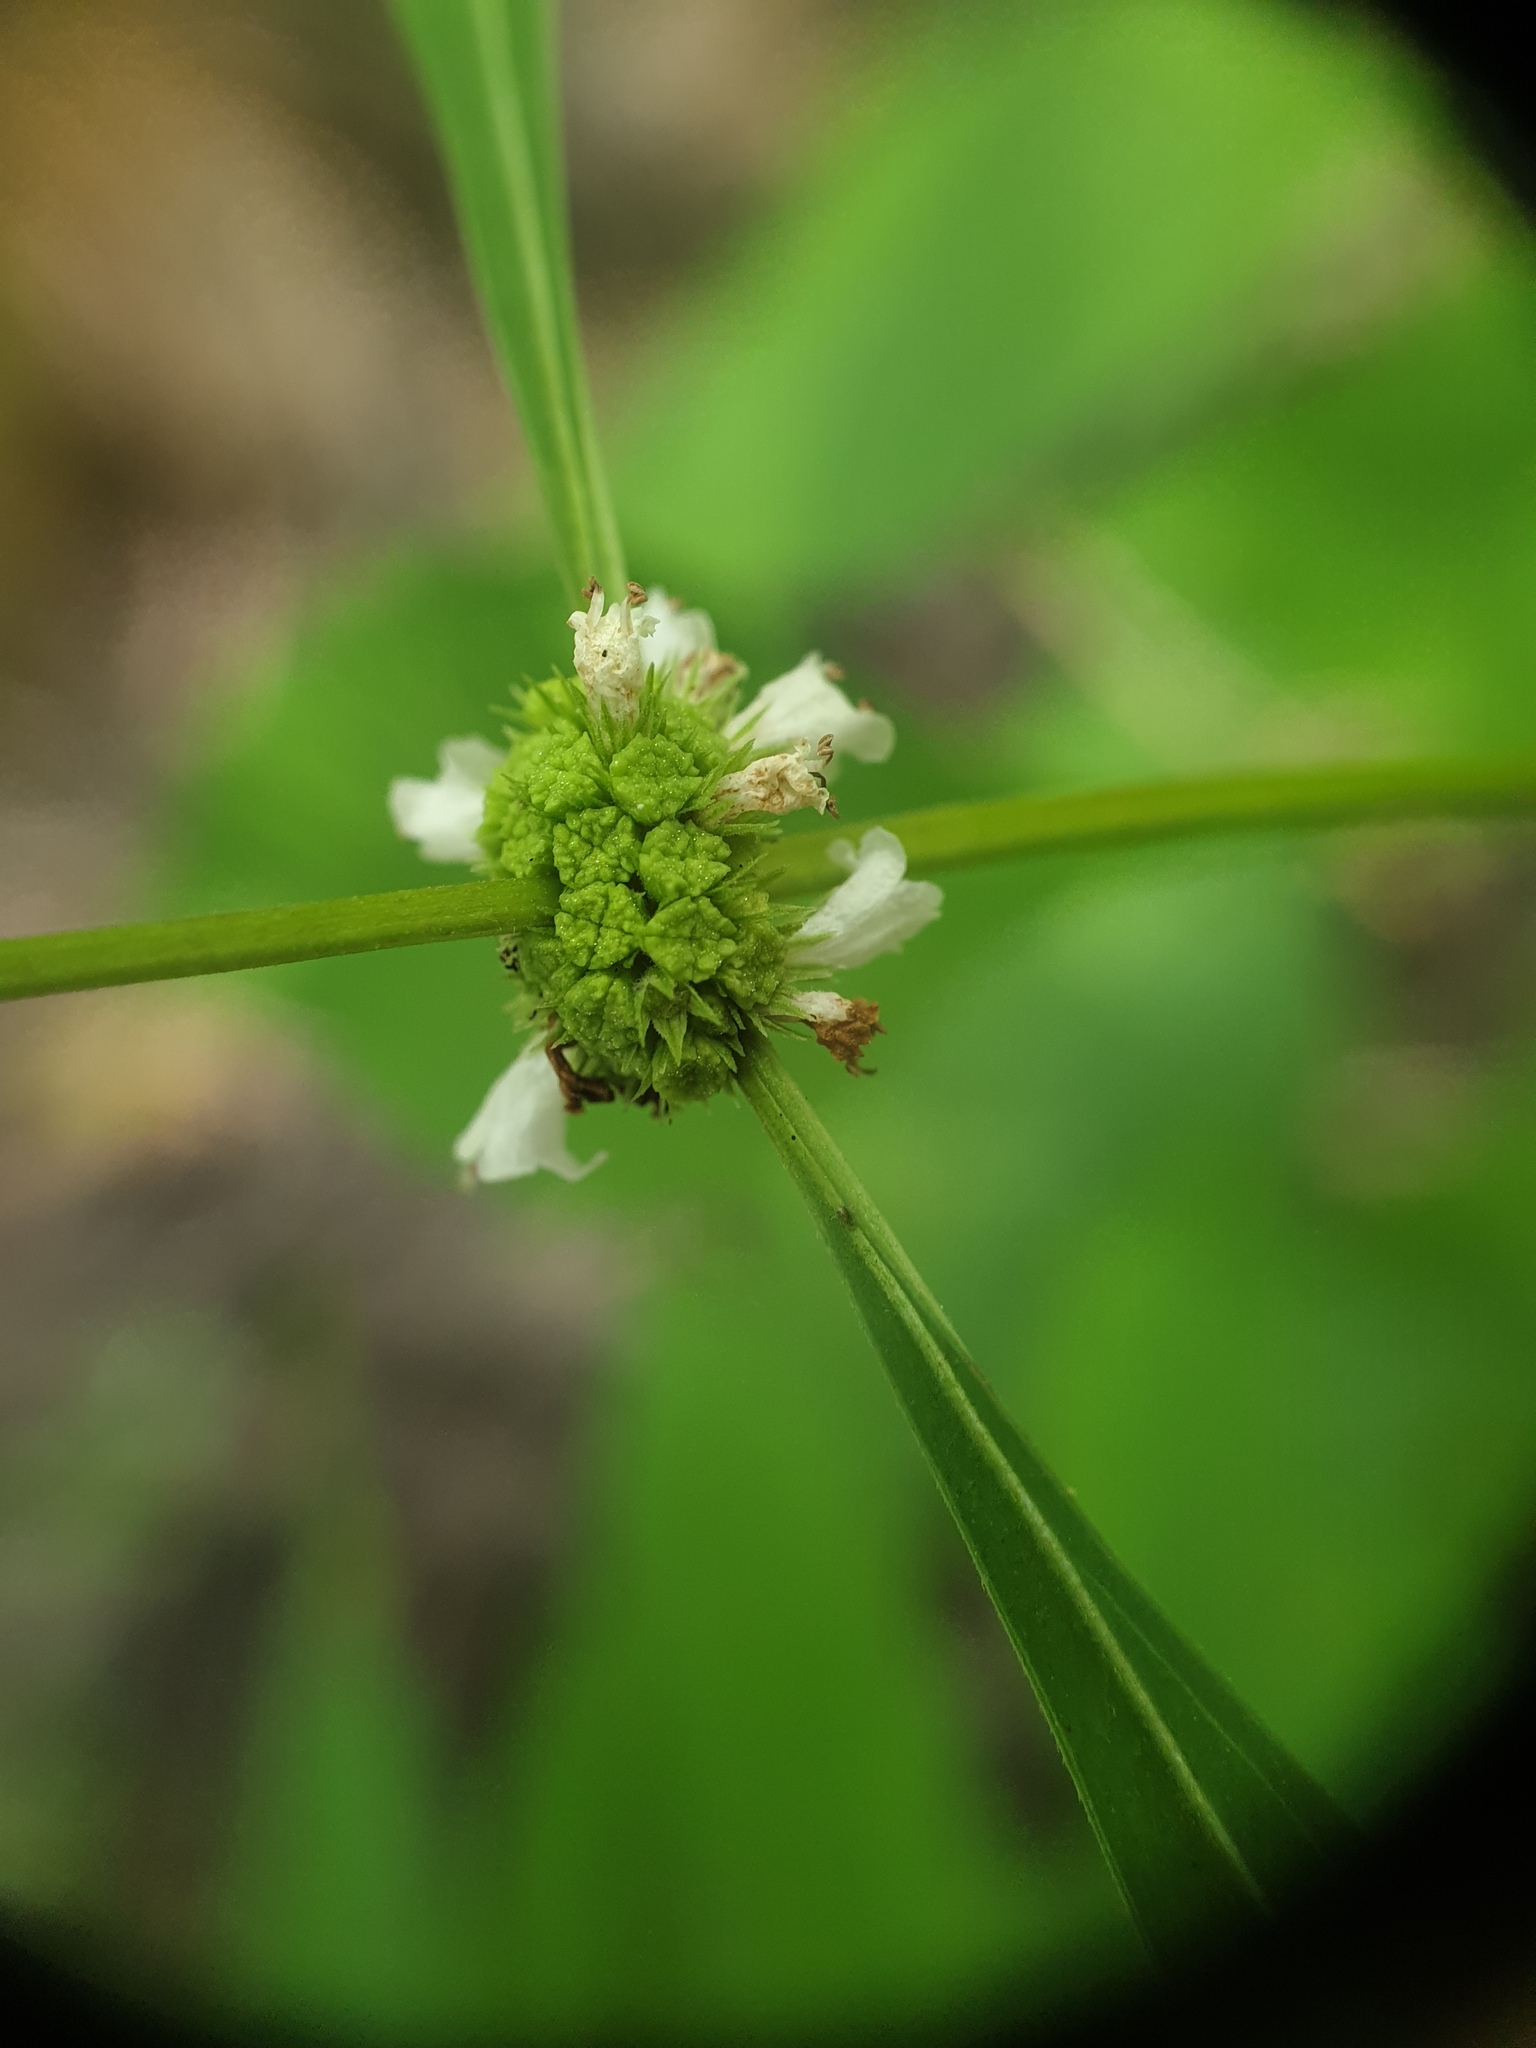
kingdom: Plantae
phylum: Tracheophyta
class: Magnoliopsida
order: Lamiales
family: Lamiaceae
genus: Lycopus
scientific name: Lycopus rubellus
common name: Stalked bugleweed
